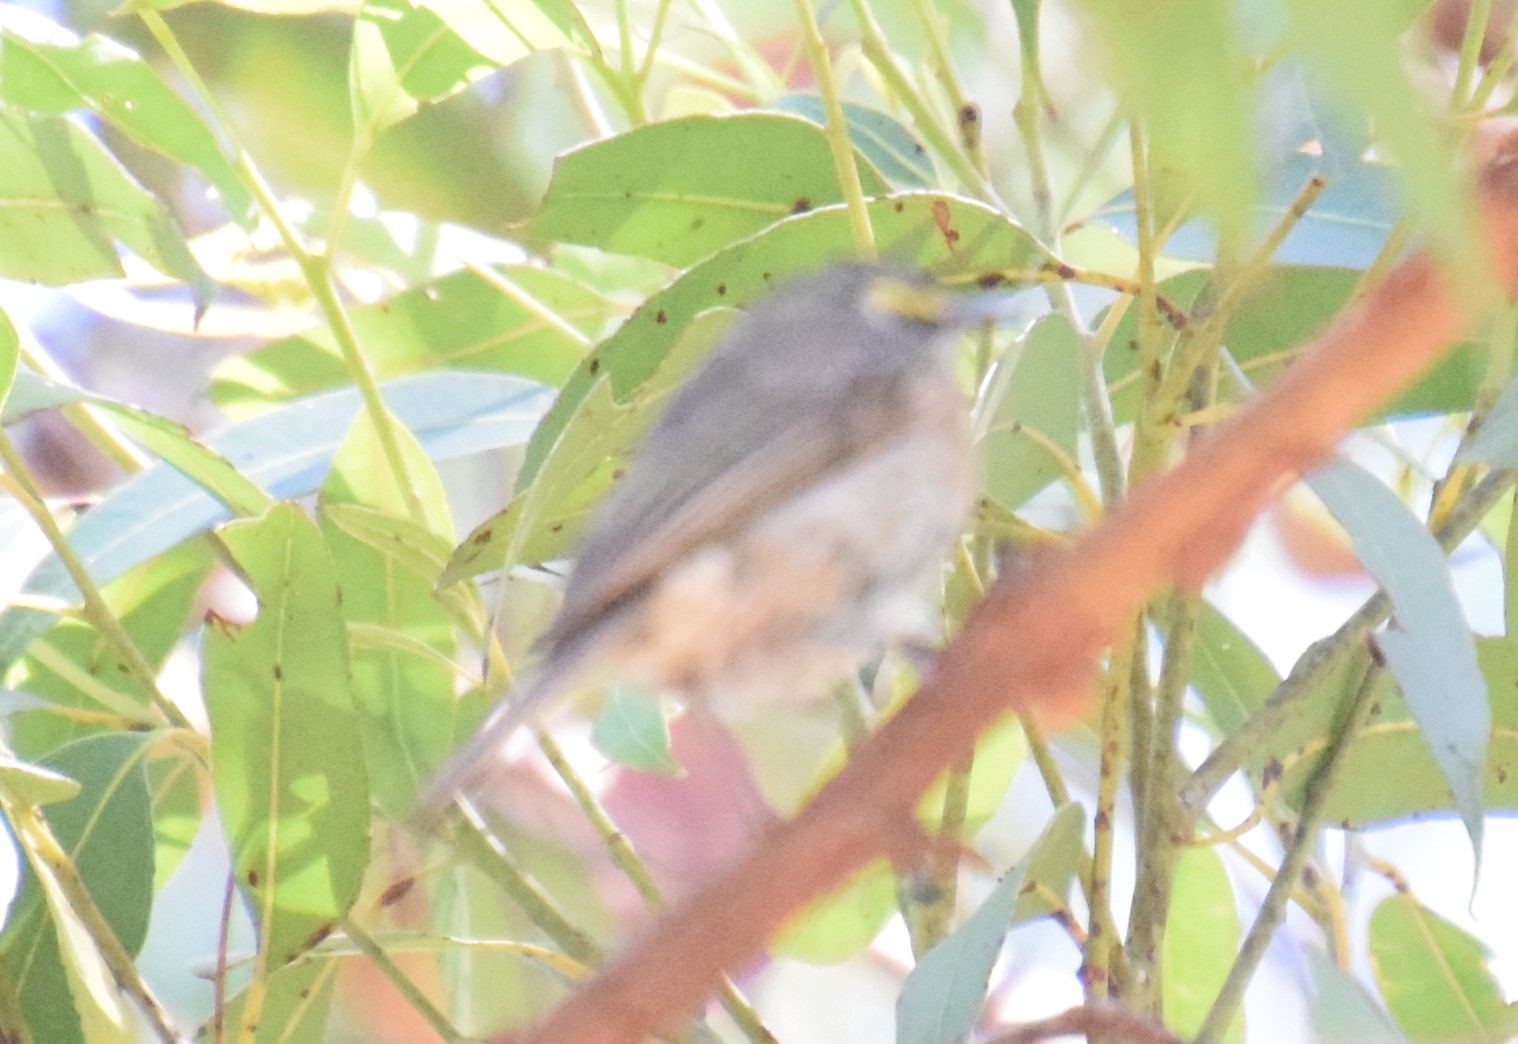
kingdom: Animalia
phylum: Chordata
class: Aves
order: Passeriformes
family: Meliphagidae
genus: Caligavis
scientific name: Caligavis chrysops
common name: Yellow-faced honeyeater
